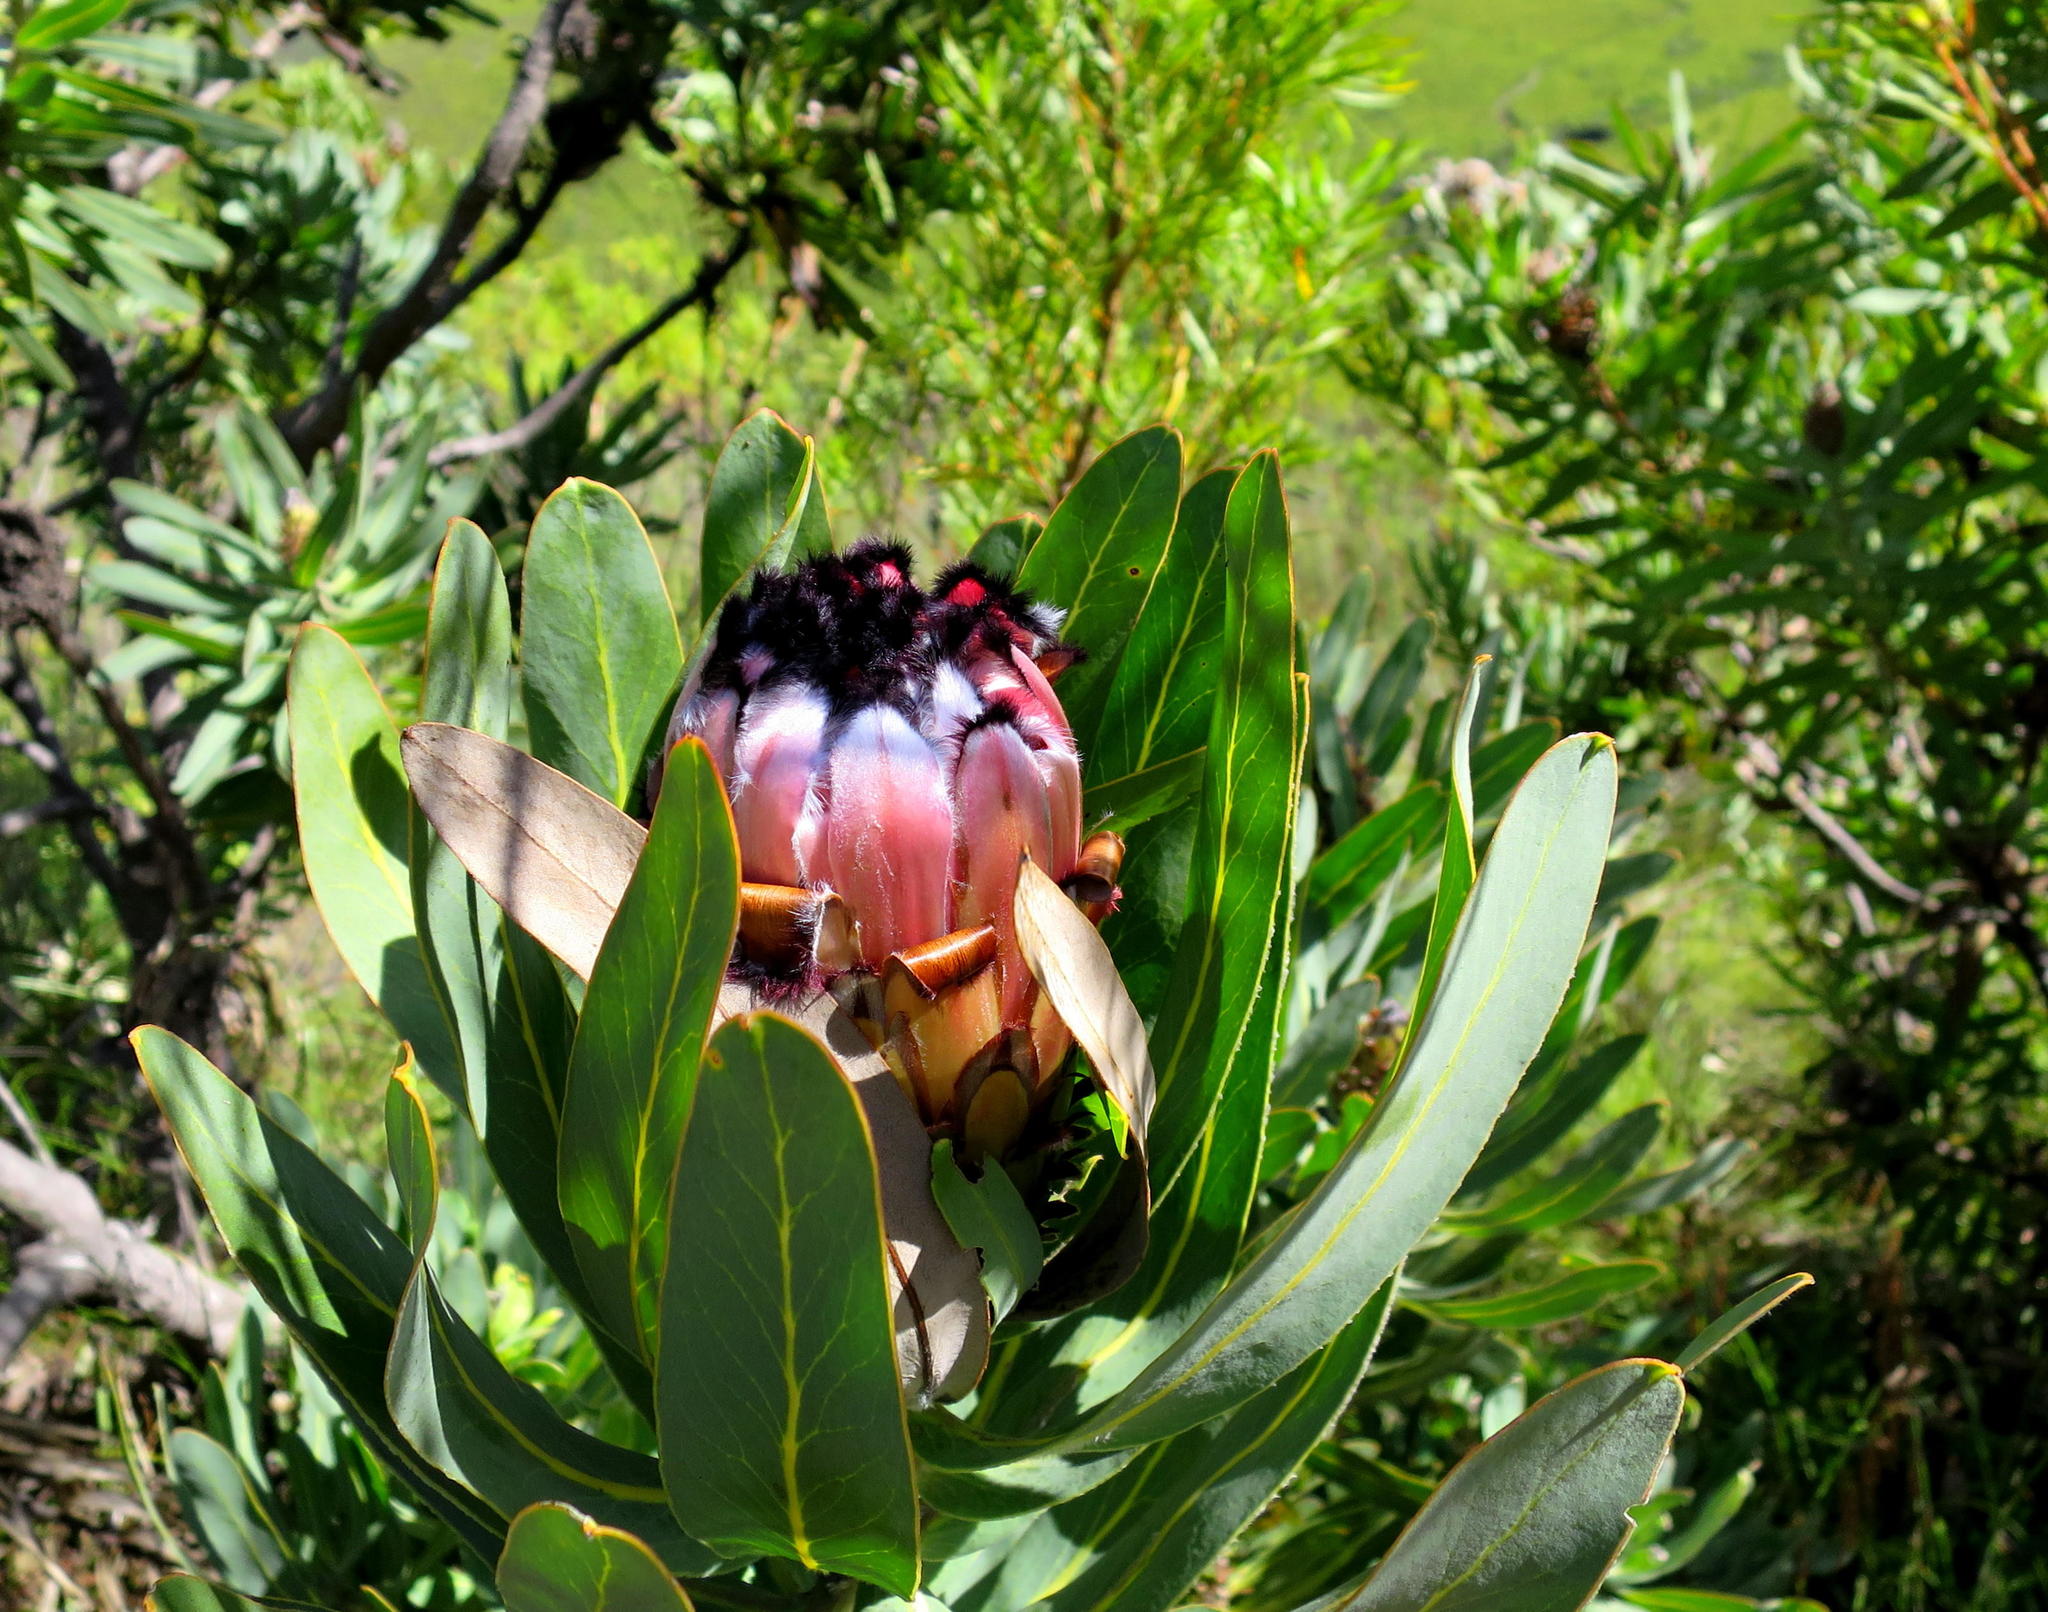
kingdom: Plantae
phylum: Tracheophyta
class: Magnoliopsida
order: Proteales
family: Proteaceae
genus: Protea
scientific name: Protea neriifolia
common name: Blue sugarbush
